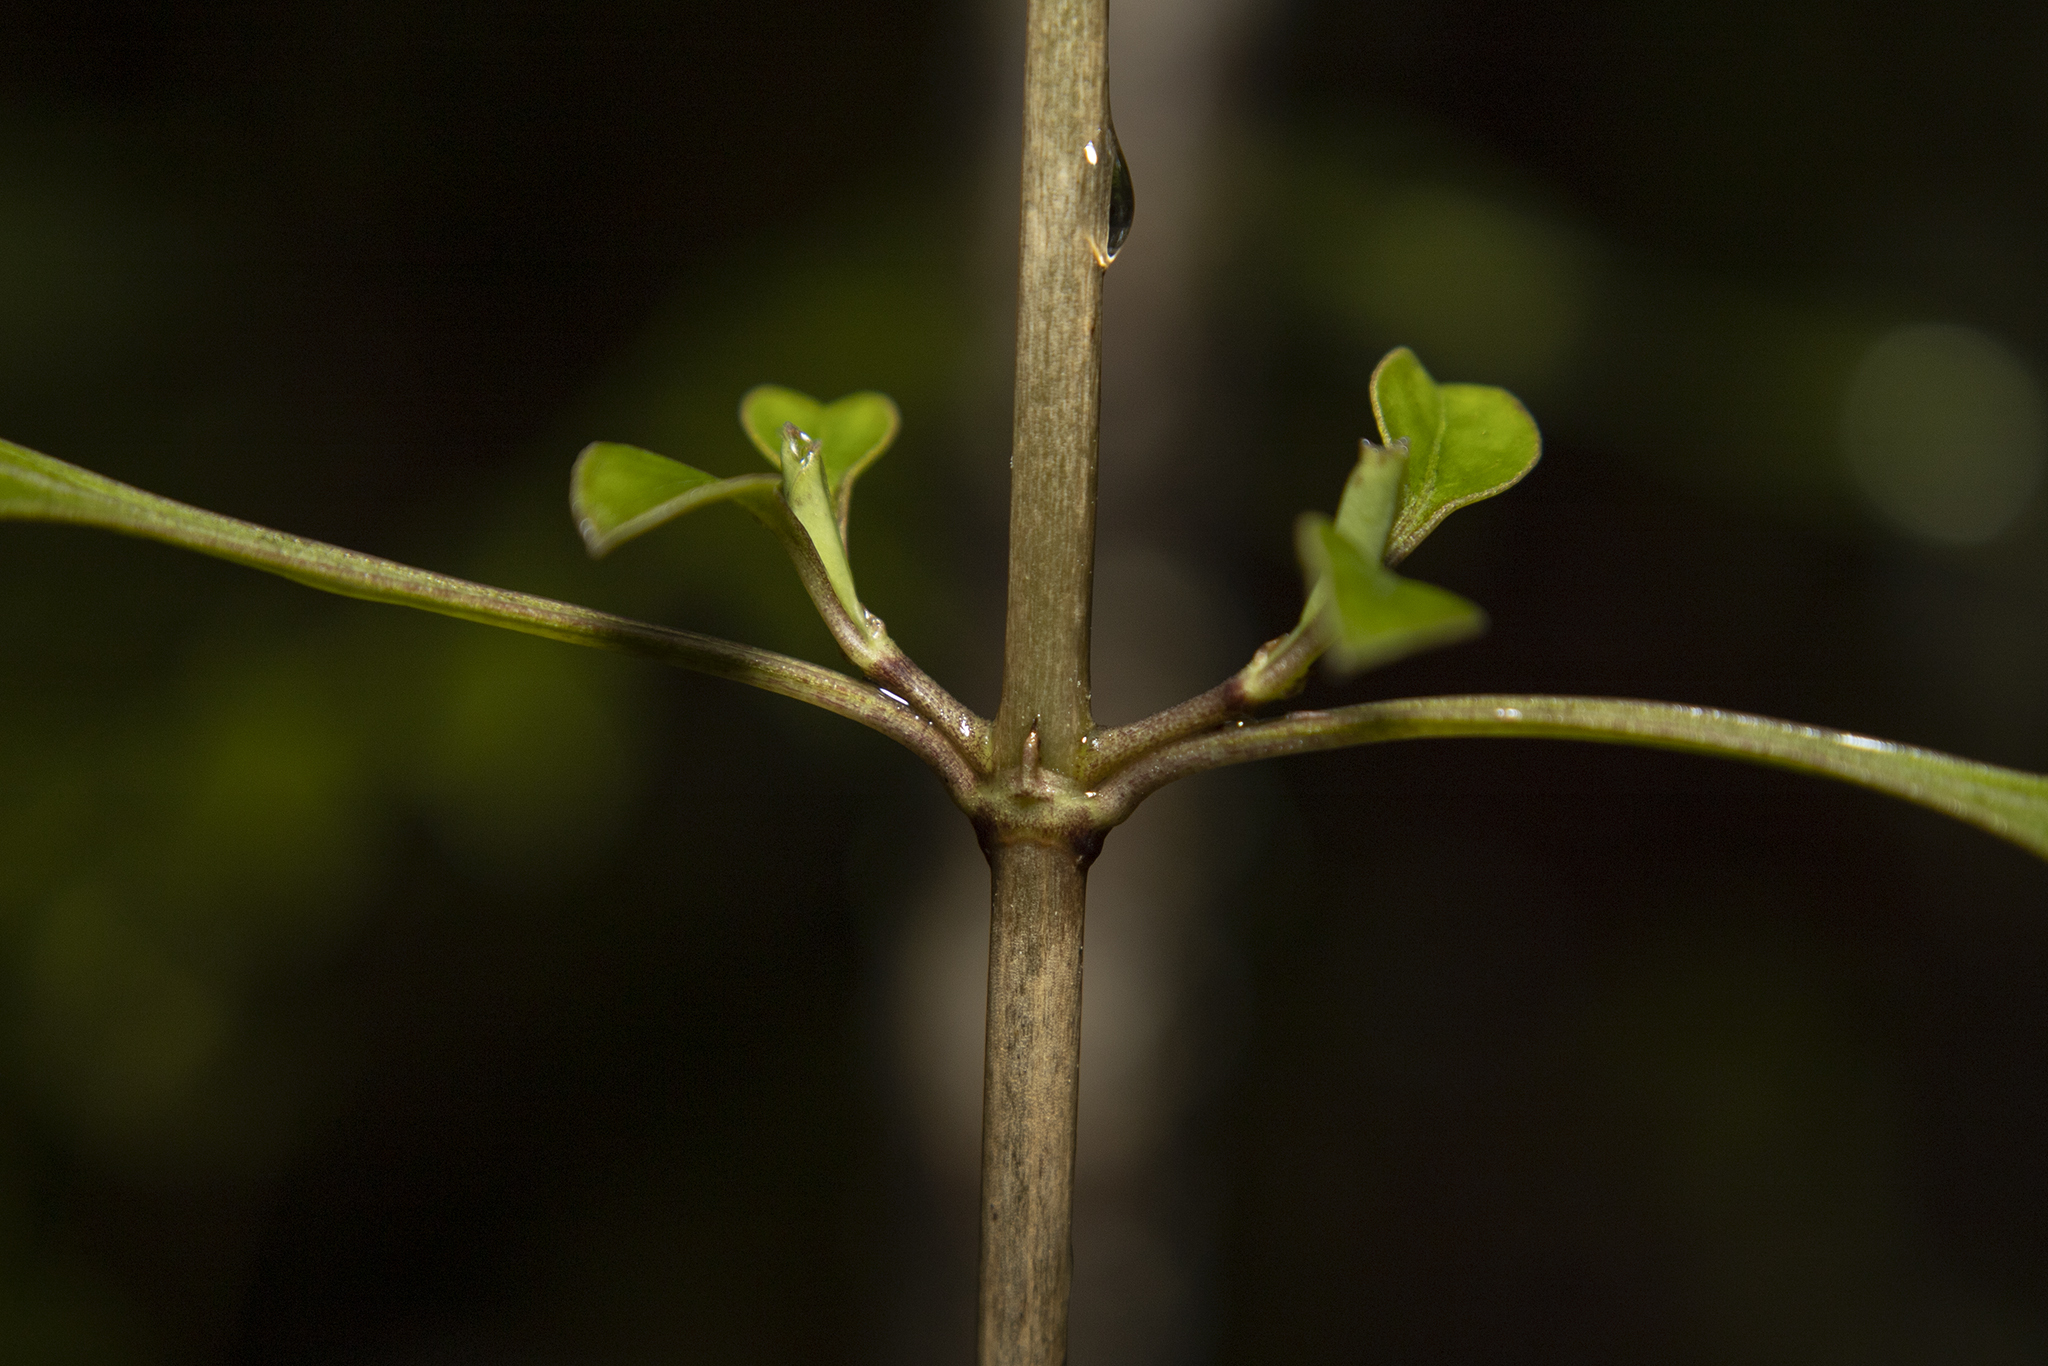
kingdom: Plantae
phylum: Tracheophyta
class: Magnoliopsida
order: Gentianales
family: Rubiaceae
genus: Coprosma
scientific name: Coprosma foetidissima
